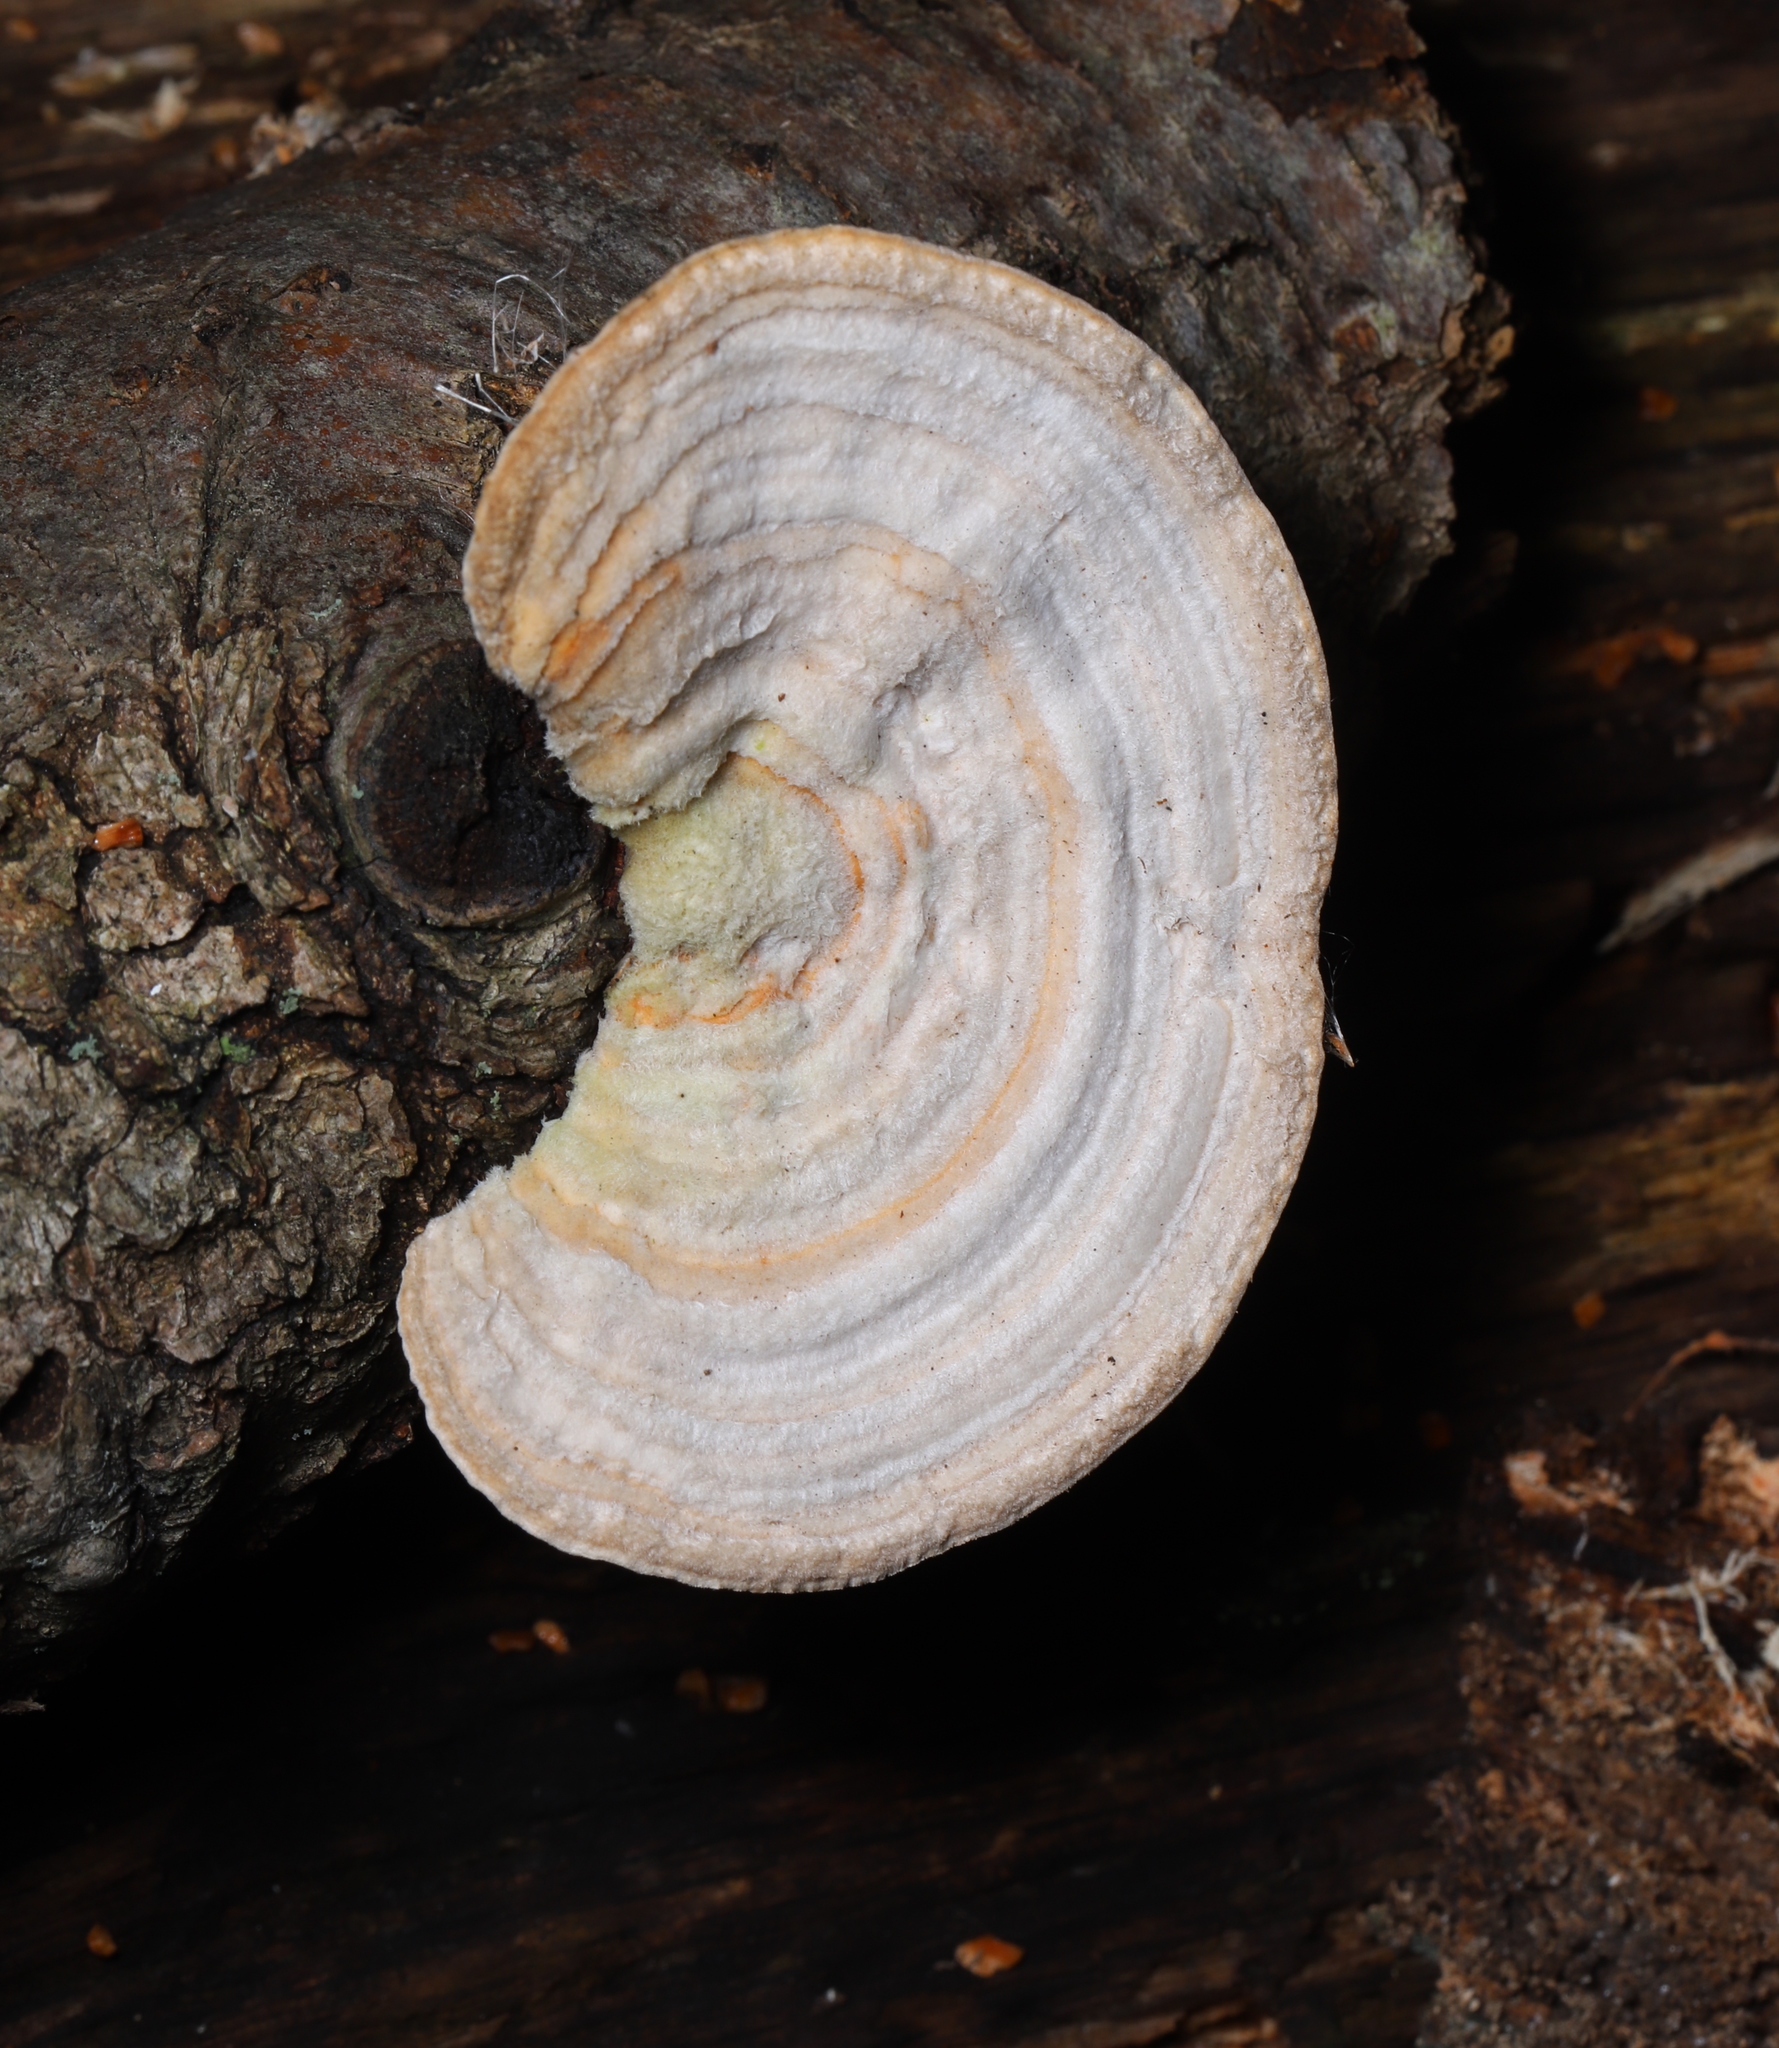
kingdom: Fungi
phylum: Basidiomycota
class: Agaricomycetes
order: Polyporales
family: Polyporaceae
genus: Lenzites
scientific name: Lenzites betulinus
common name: Birch mazegill
